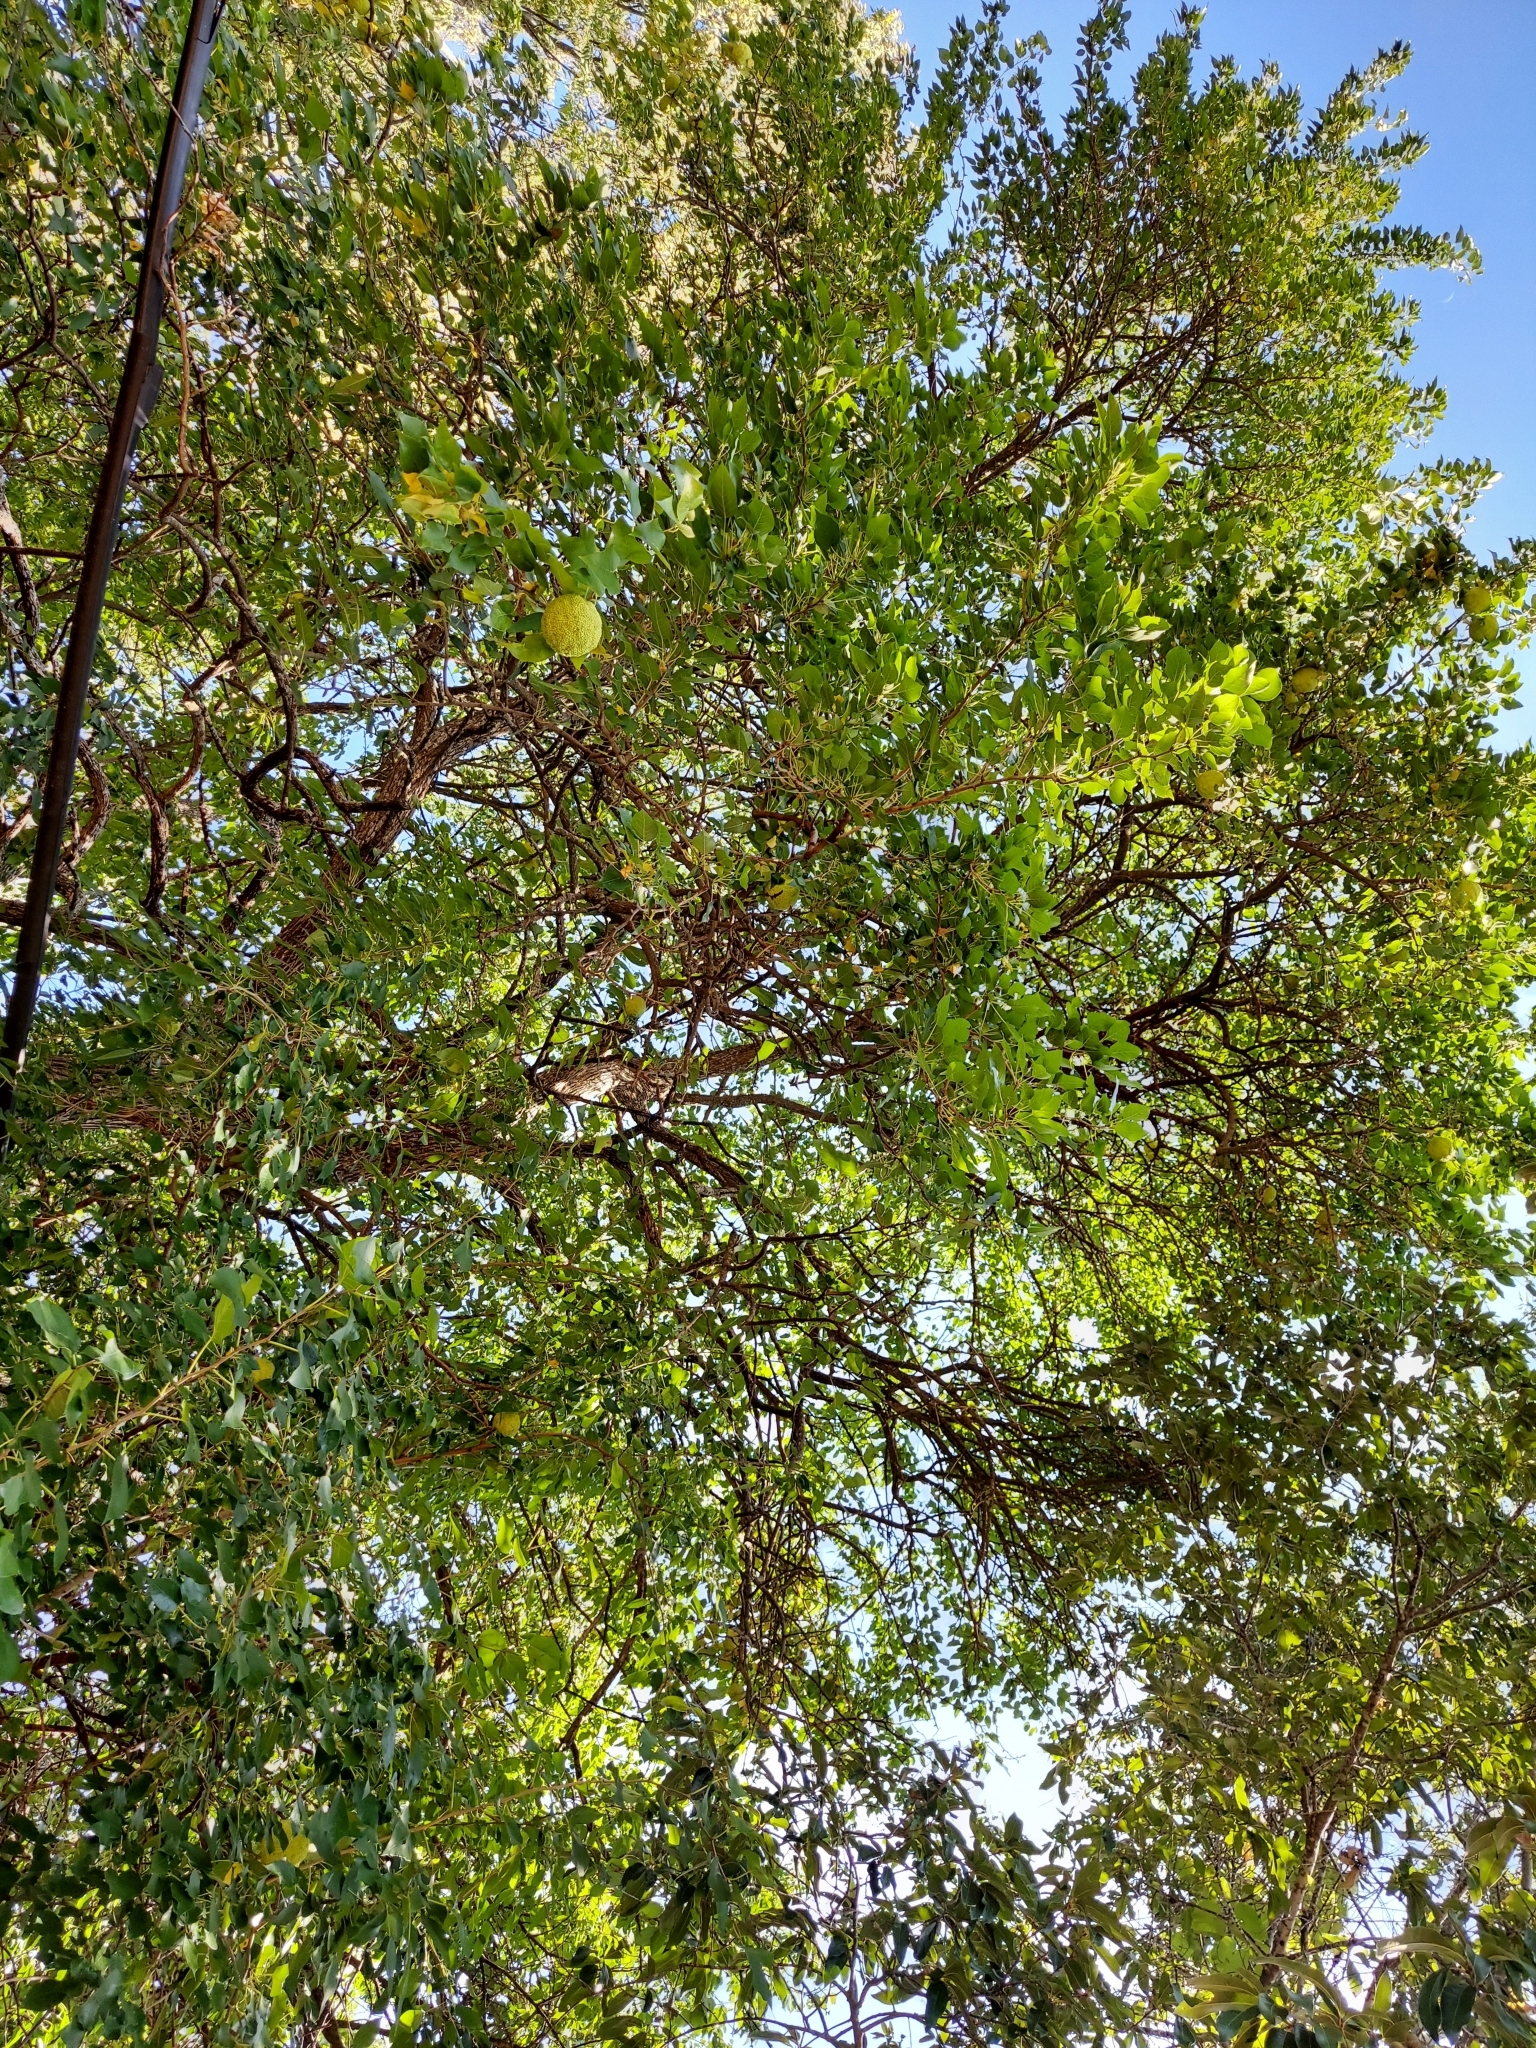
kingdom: Plantae
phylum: Tracheophyta
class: Magnoliopsida
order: Rosales
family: Moraceae
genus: Maclura
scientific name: Maclura pomifera
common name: Osage-orange
